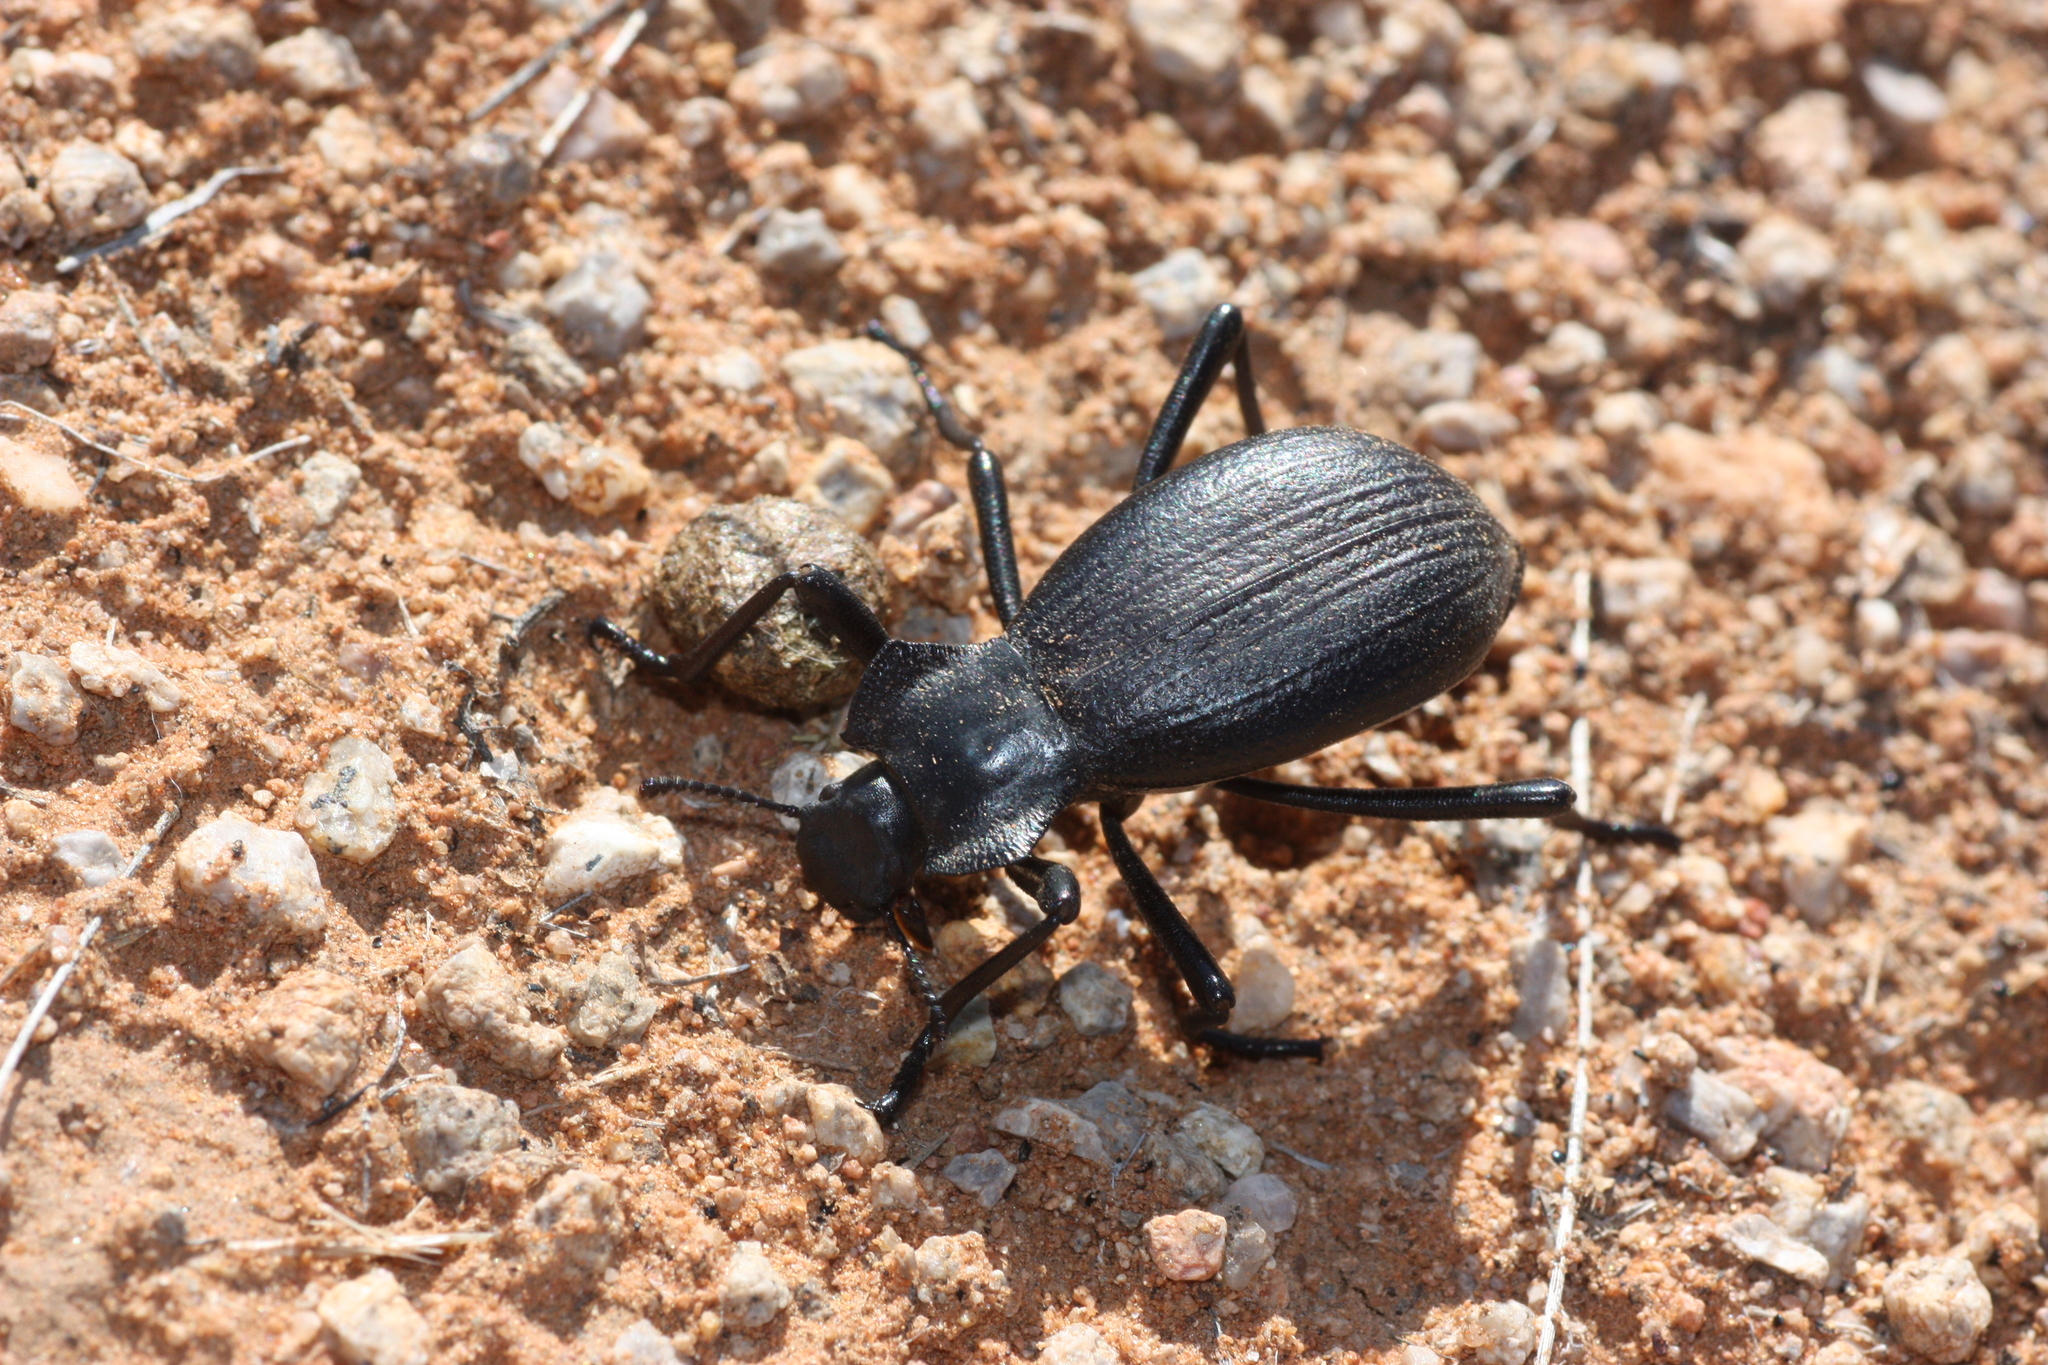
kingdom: Animalia
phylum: Arthropoda
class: Insecta
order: Coleoptera
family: Tenebrionidae
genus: Philolithus
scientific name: Philolithus elatus
